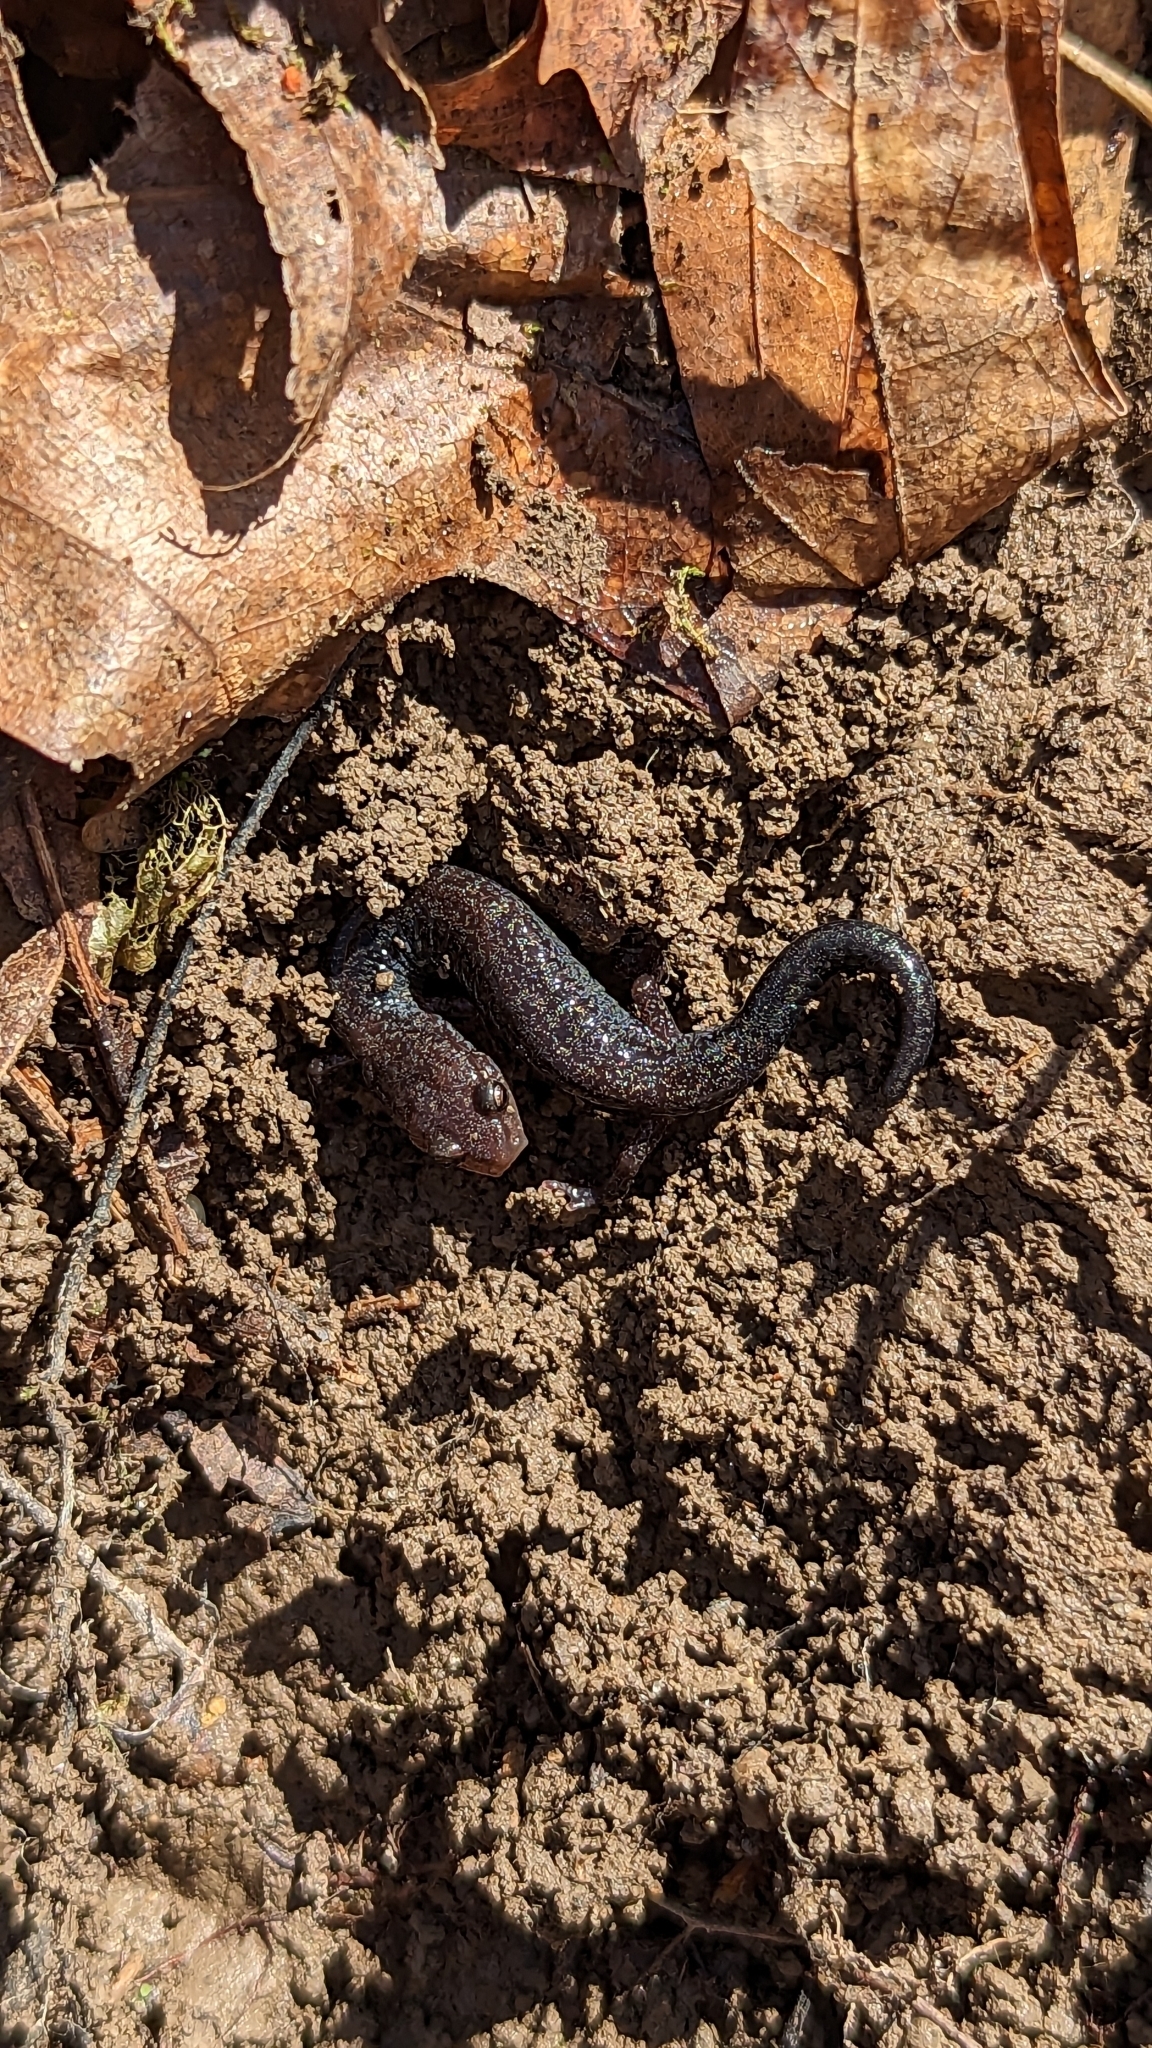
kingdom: Animalia
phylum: Chordata
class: Amphibia
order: Caudata
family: Plethodontidae
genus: Plethodon
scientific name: Plethodon cinereus
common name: Redback salamander
